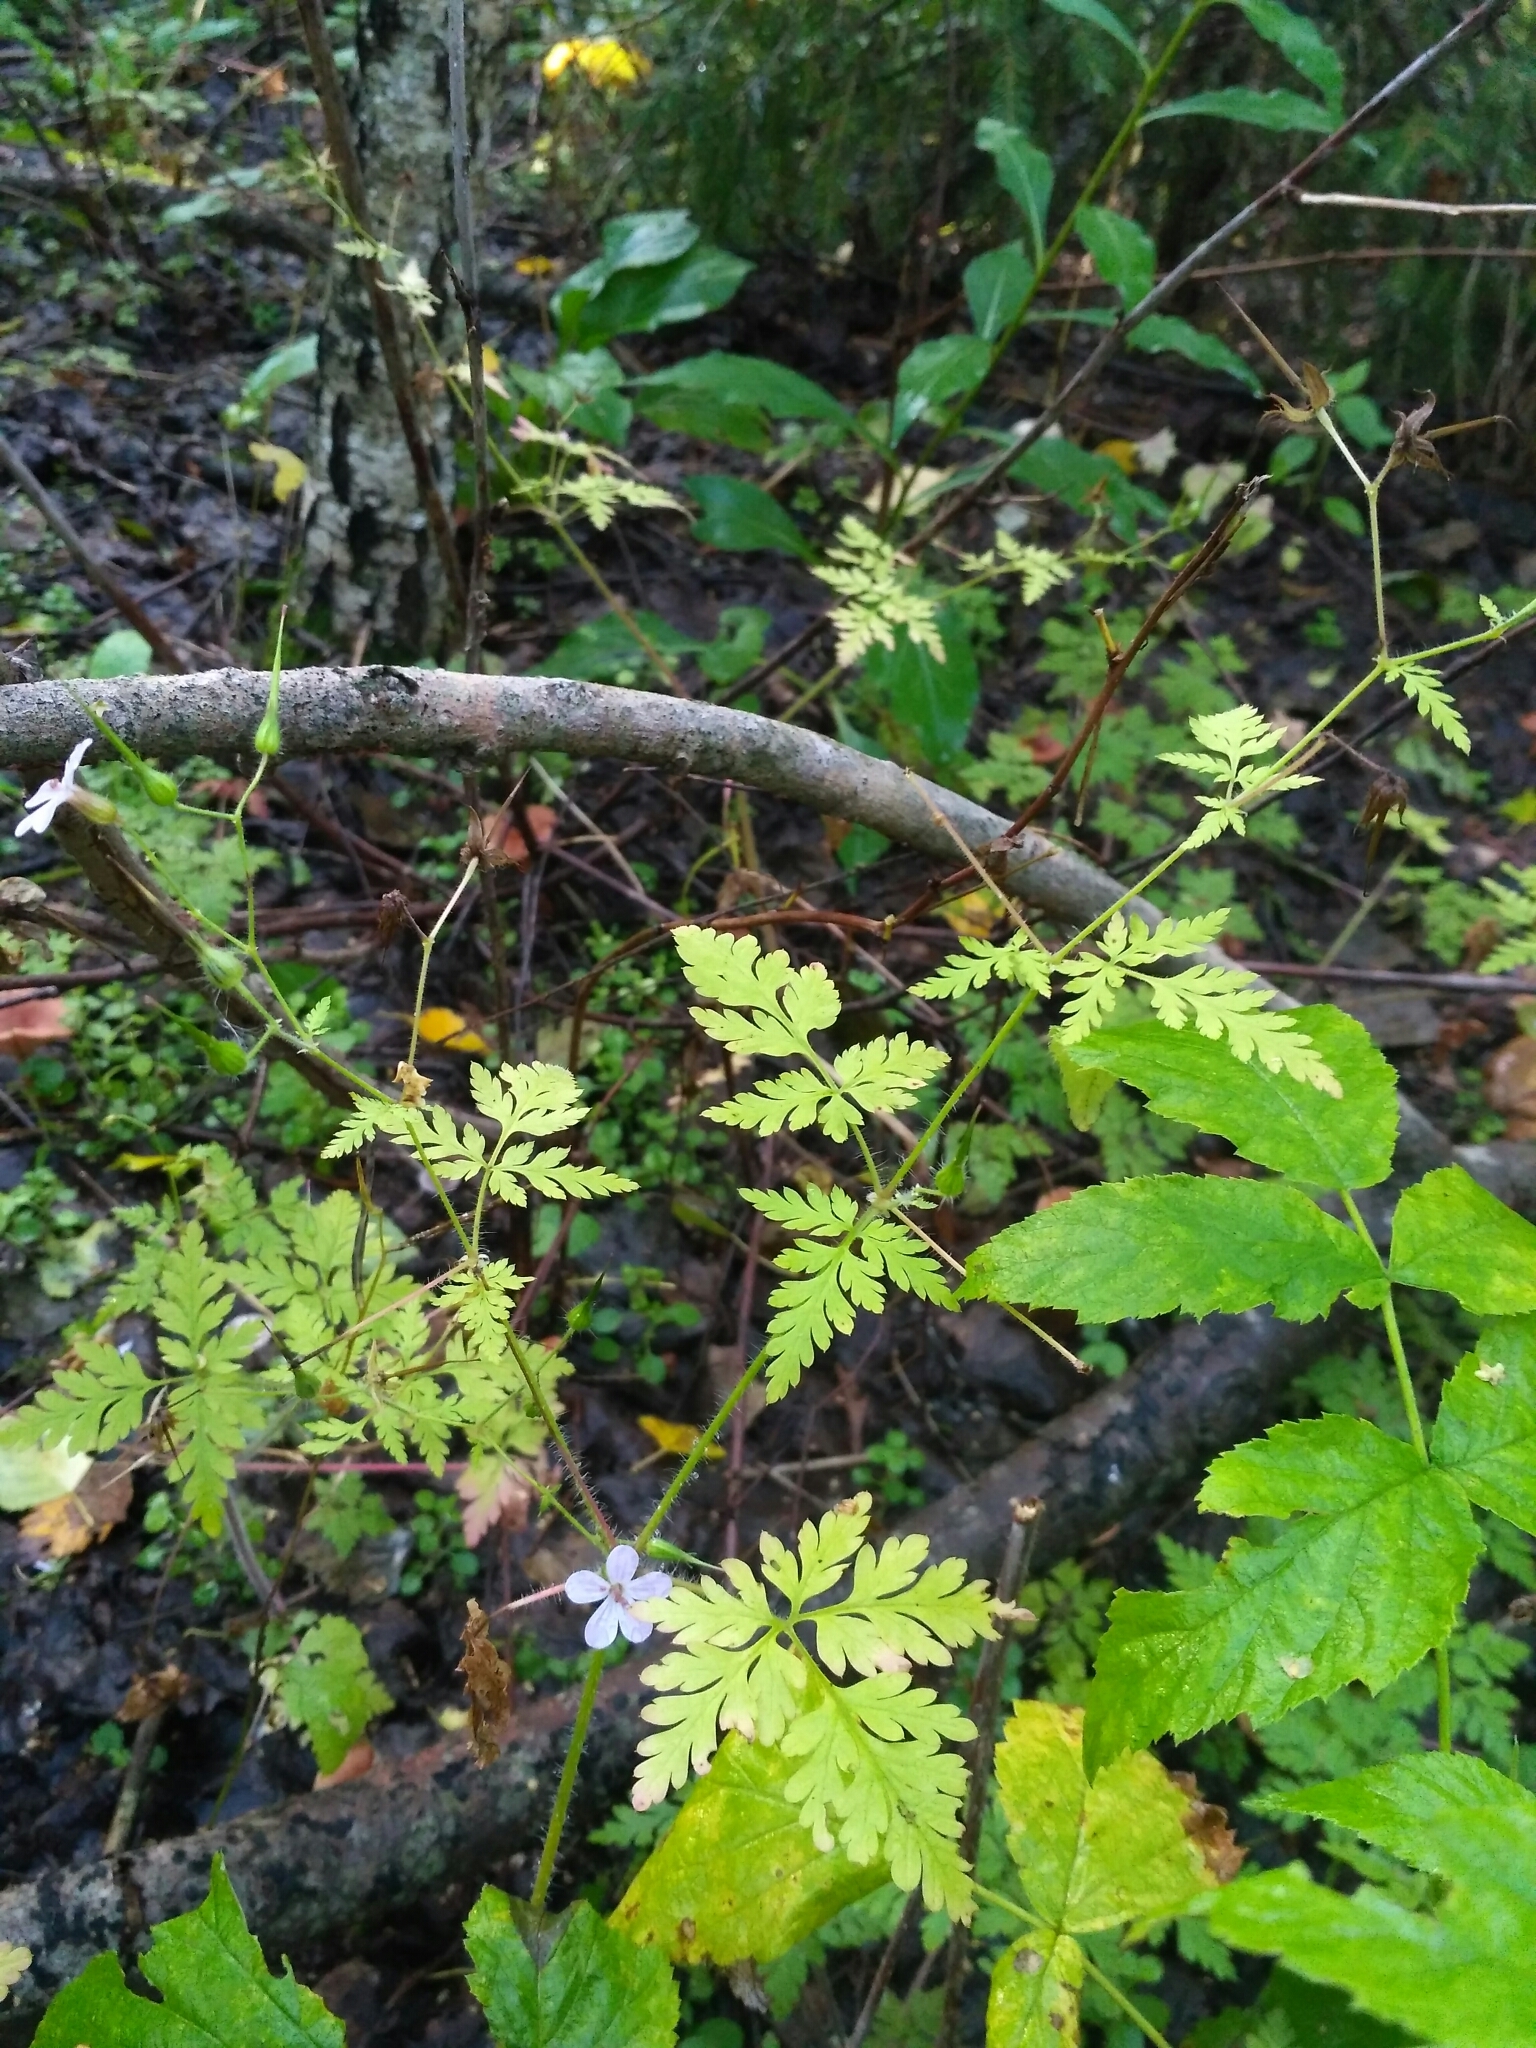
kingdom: Plantae
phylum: Tracheophyta
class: Magnoliopsida
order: Geraniales
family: Geraniaceae
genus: Geranium
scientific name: Geranium robertianum
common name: Herb-robert
